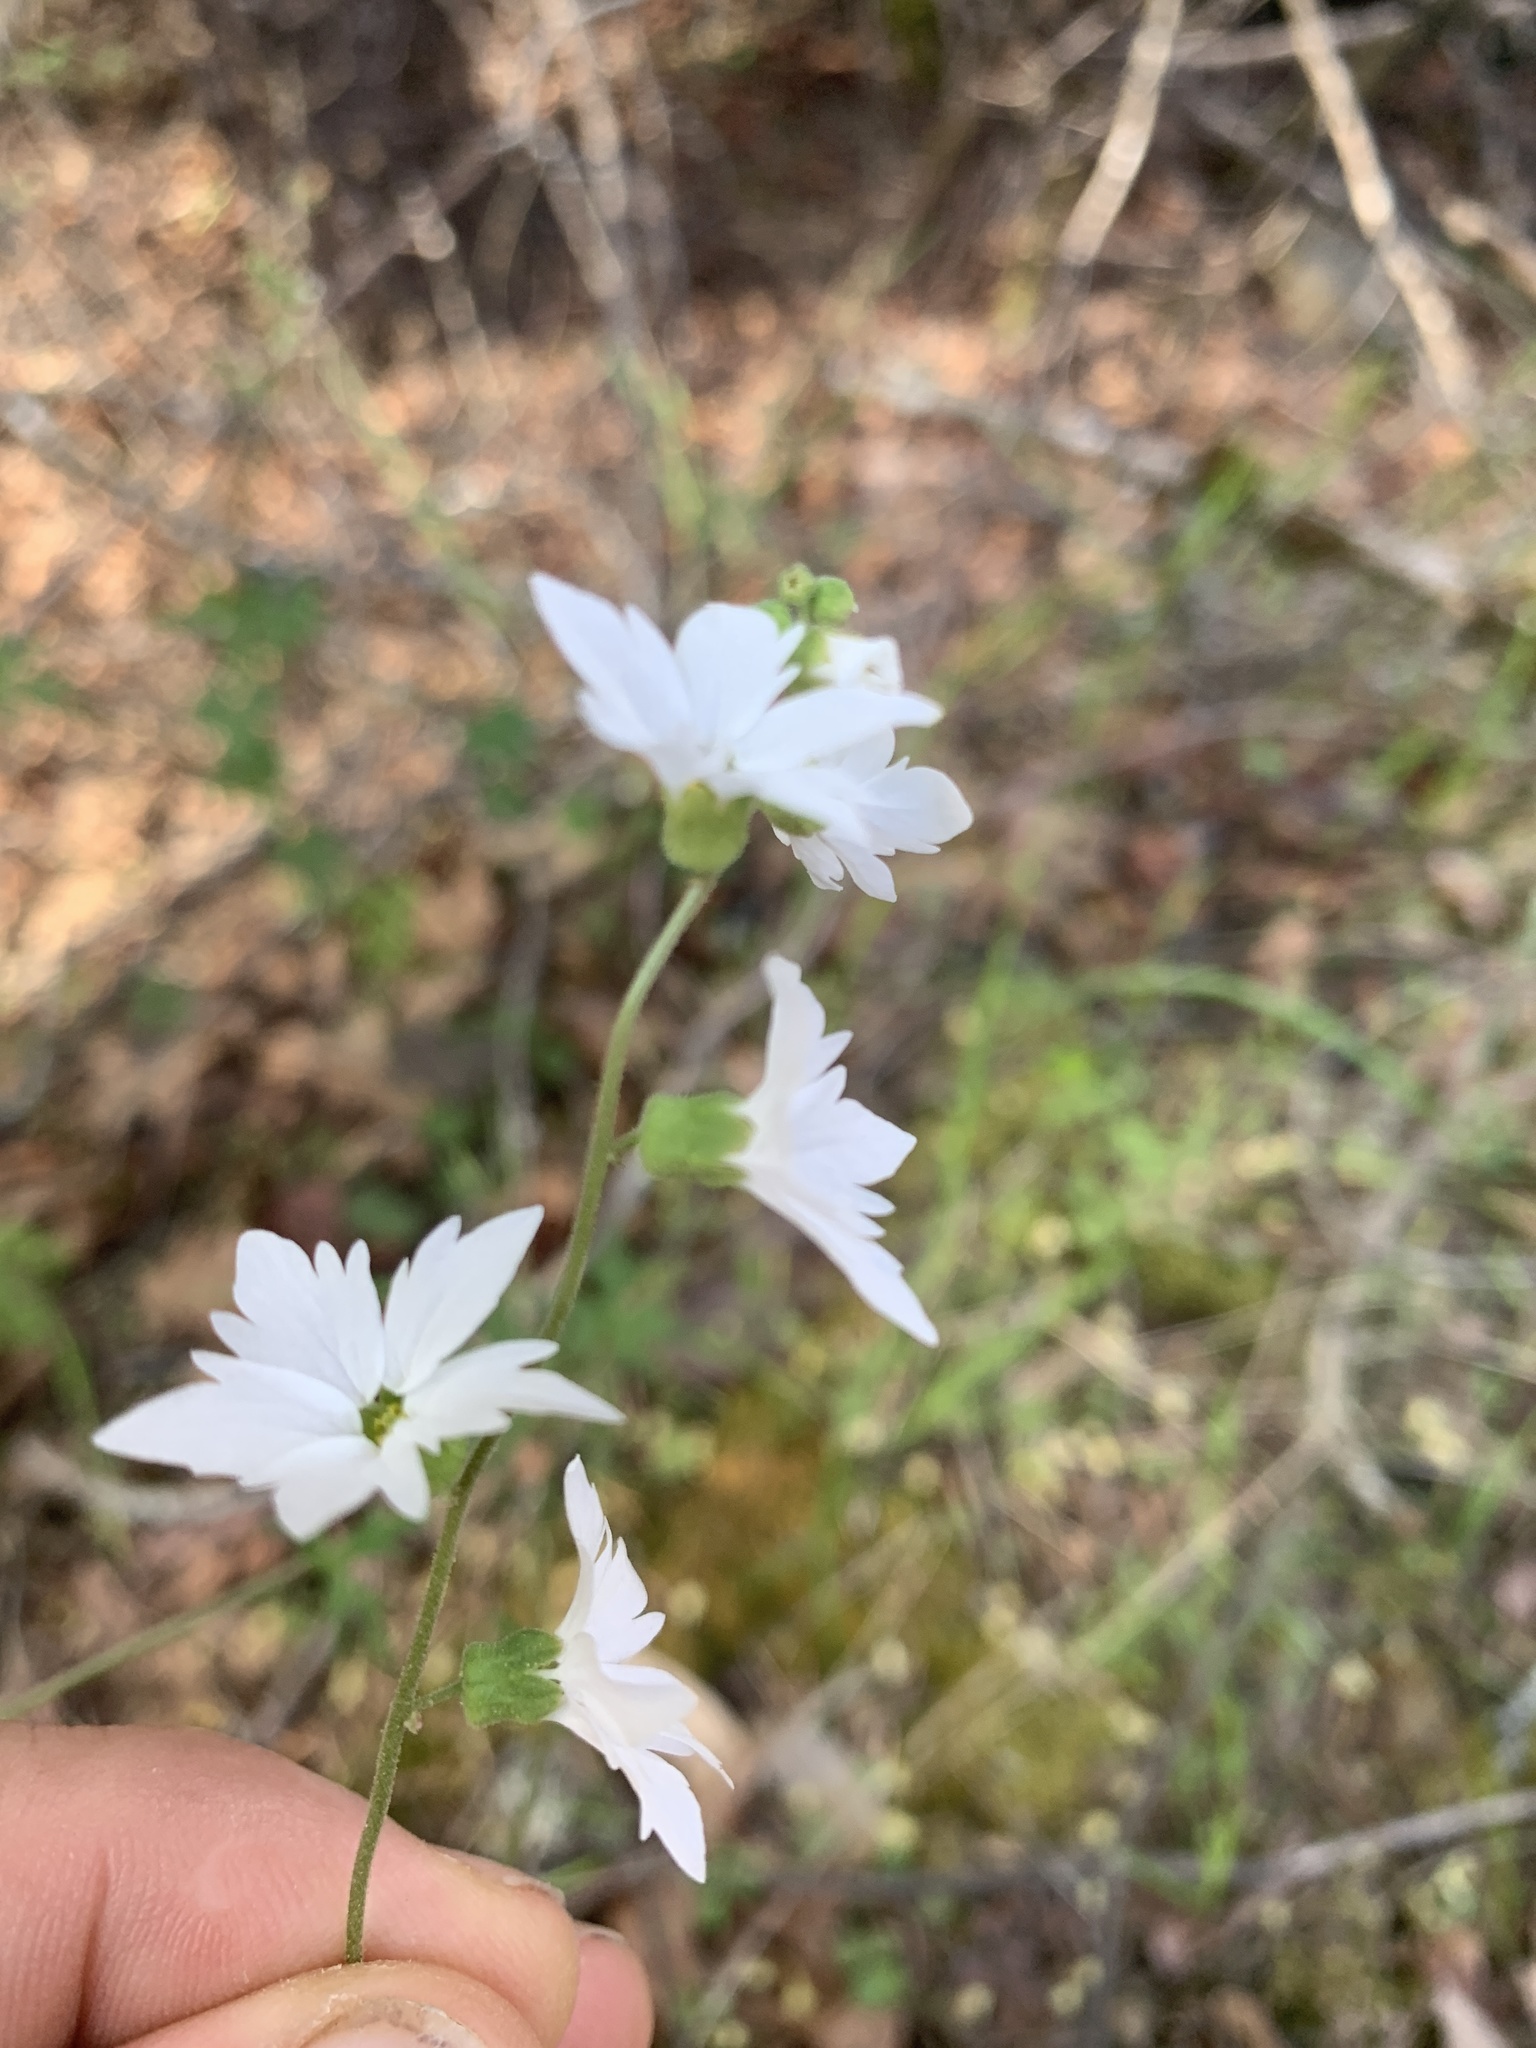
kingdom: Plantae
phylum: Tracheophyta
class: Magnoliopsida
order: Saxifragales
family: Saxifragaceae
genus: Lithophragma
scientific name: Lithophragma heterophyllum
